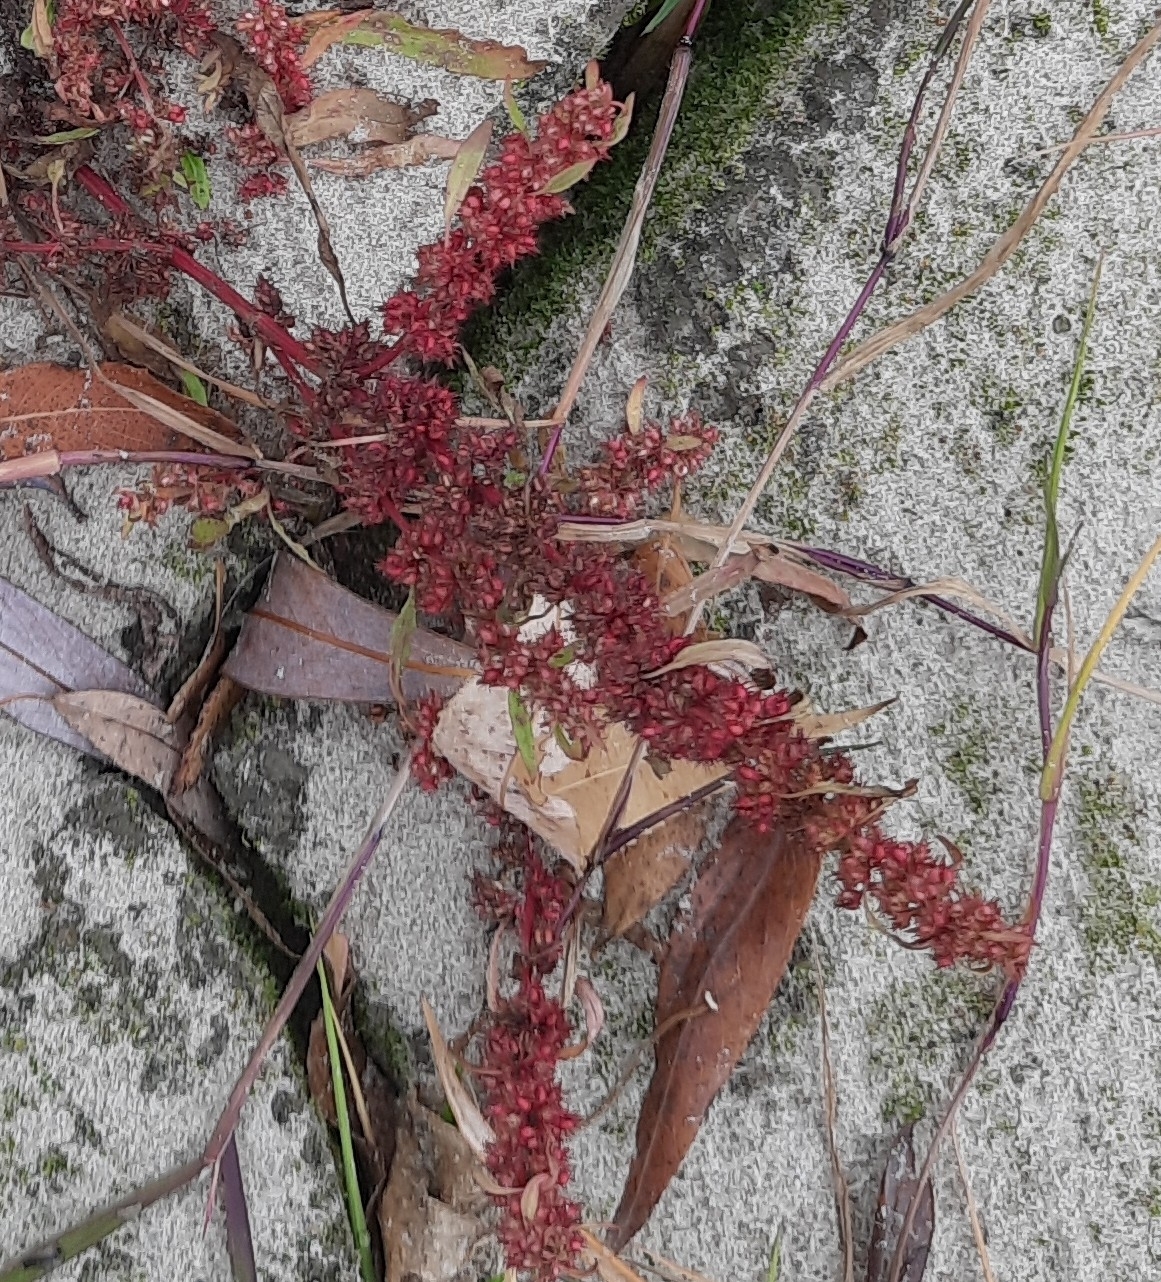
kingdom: Plantae
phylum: Tracheophyta
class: Magnoliopsida
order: Caryophyllales
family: Polygonaceae
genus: Rumex
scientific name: Rumex maritimus
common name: Golden dock
